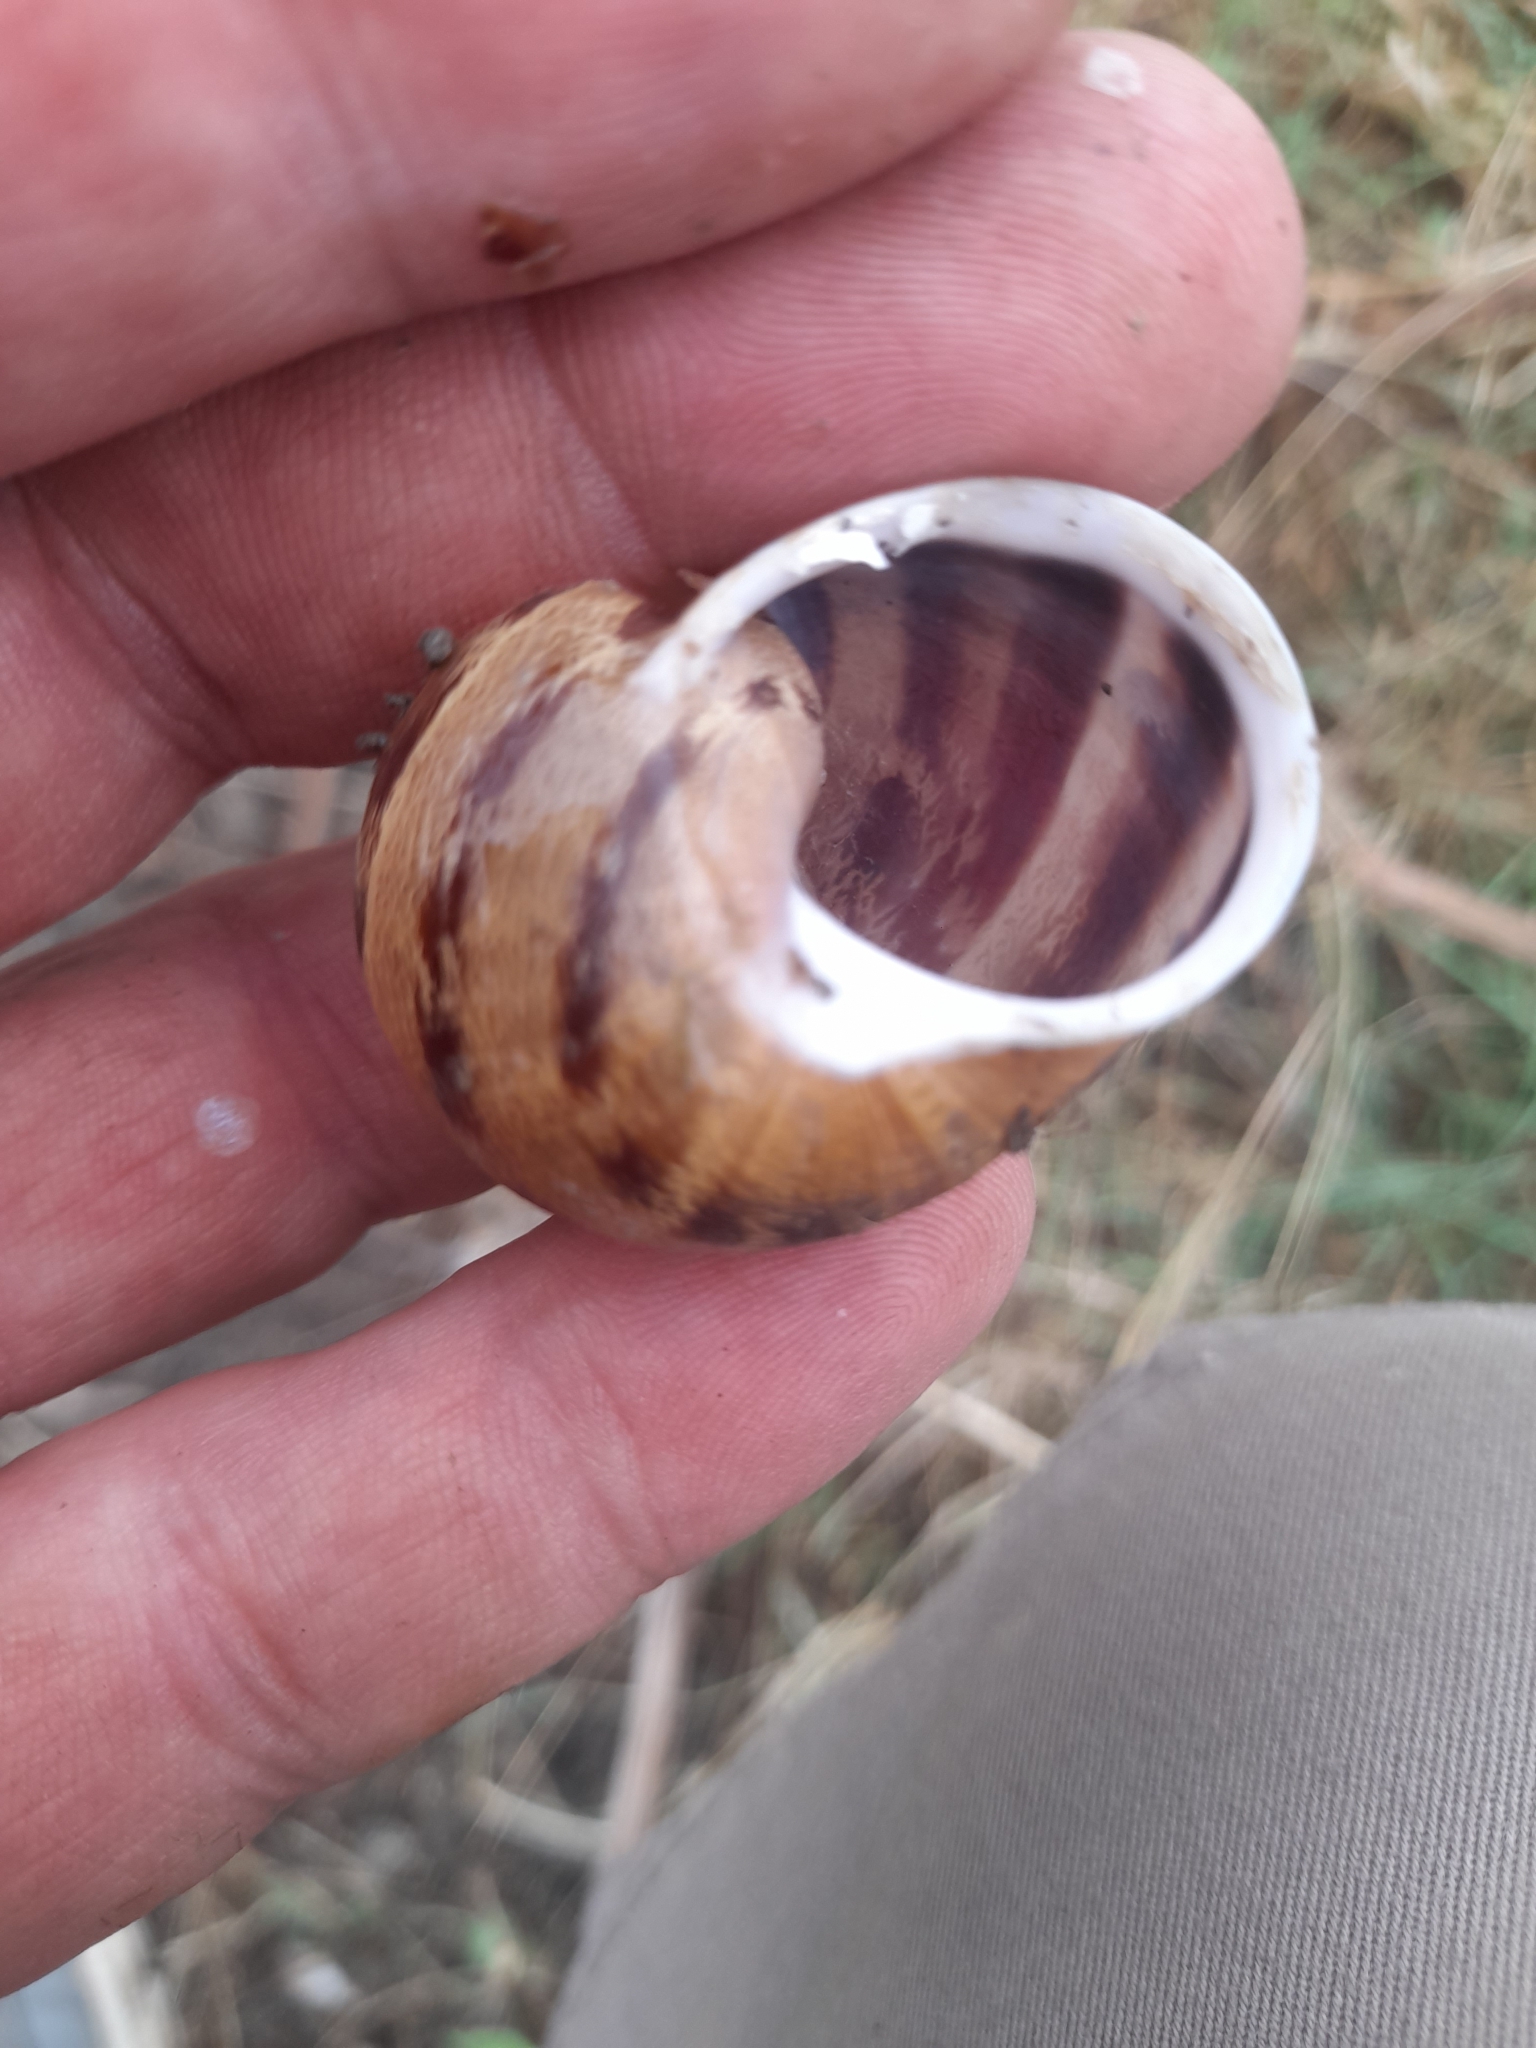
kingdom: Animalia
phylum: Mollusca
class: Gastropoda
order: Stylommatophora
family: Helicidae
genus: Cornu
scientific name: Cornu aspersum
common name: Brown garden snail
